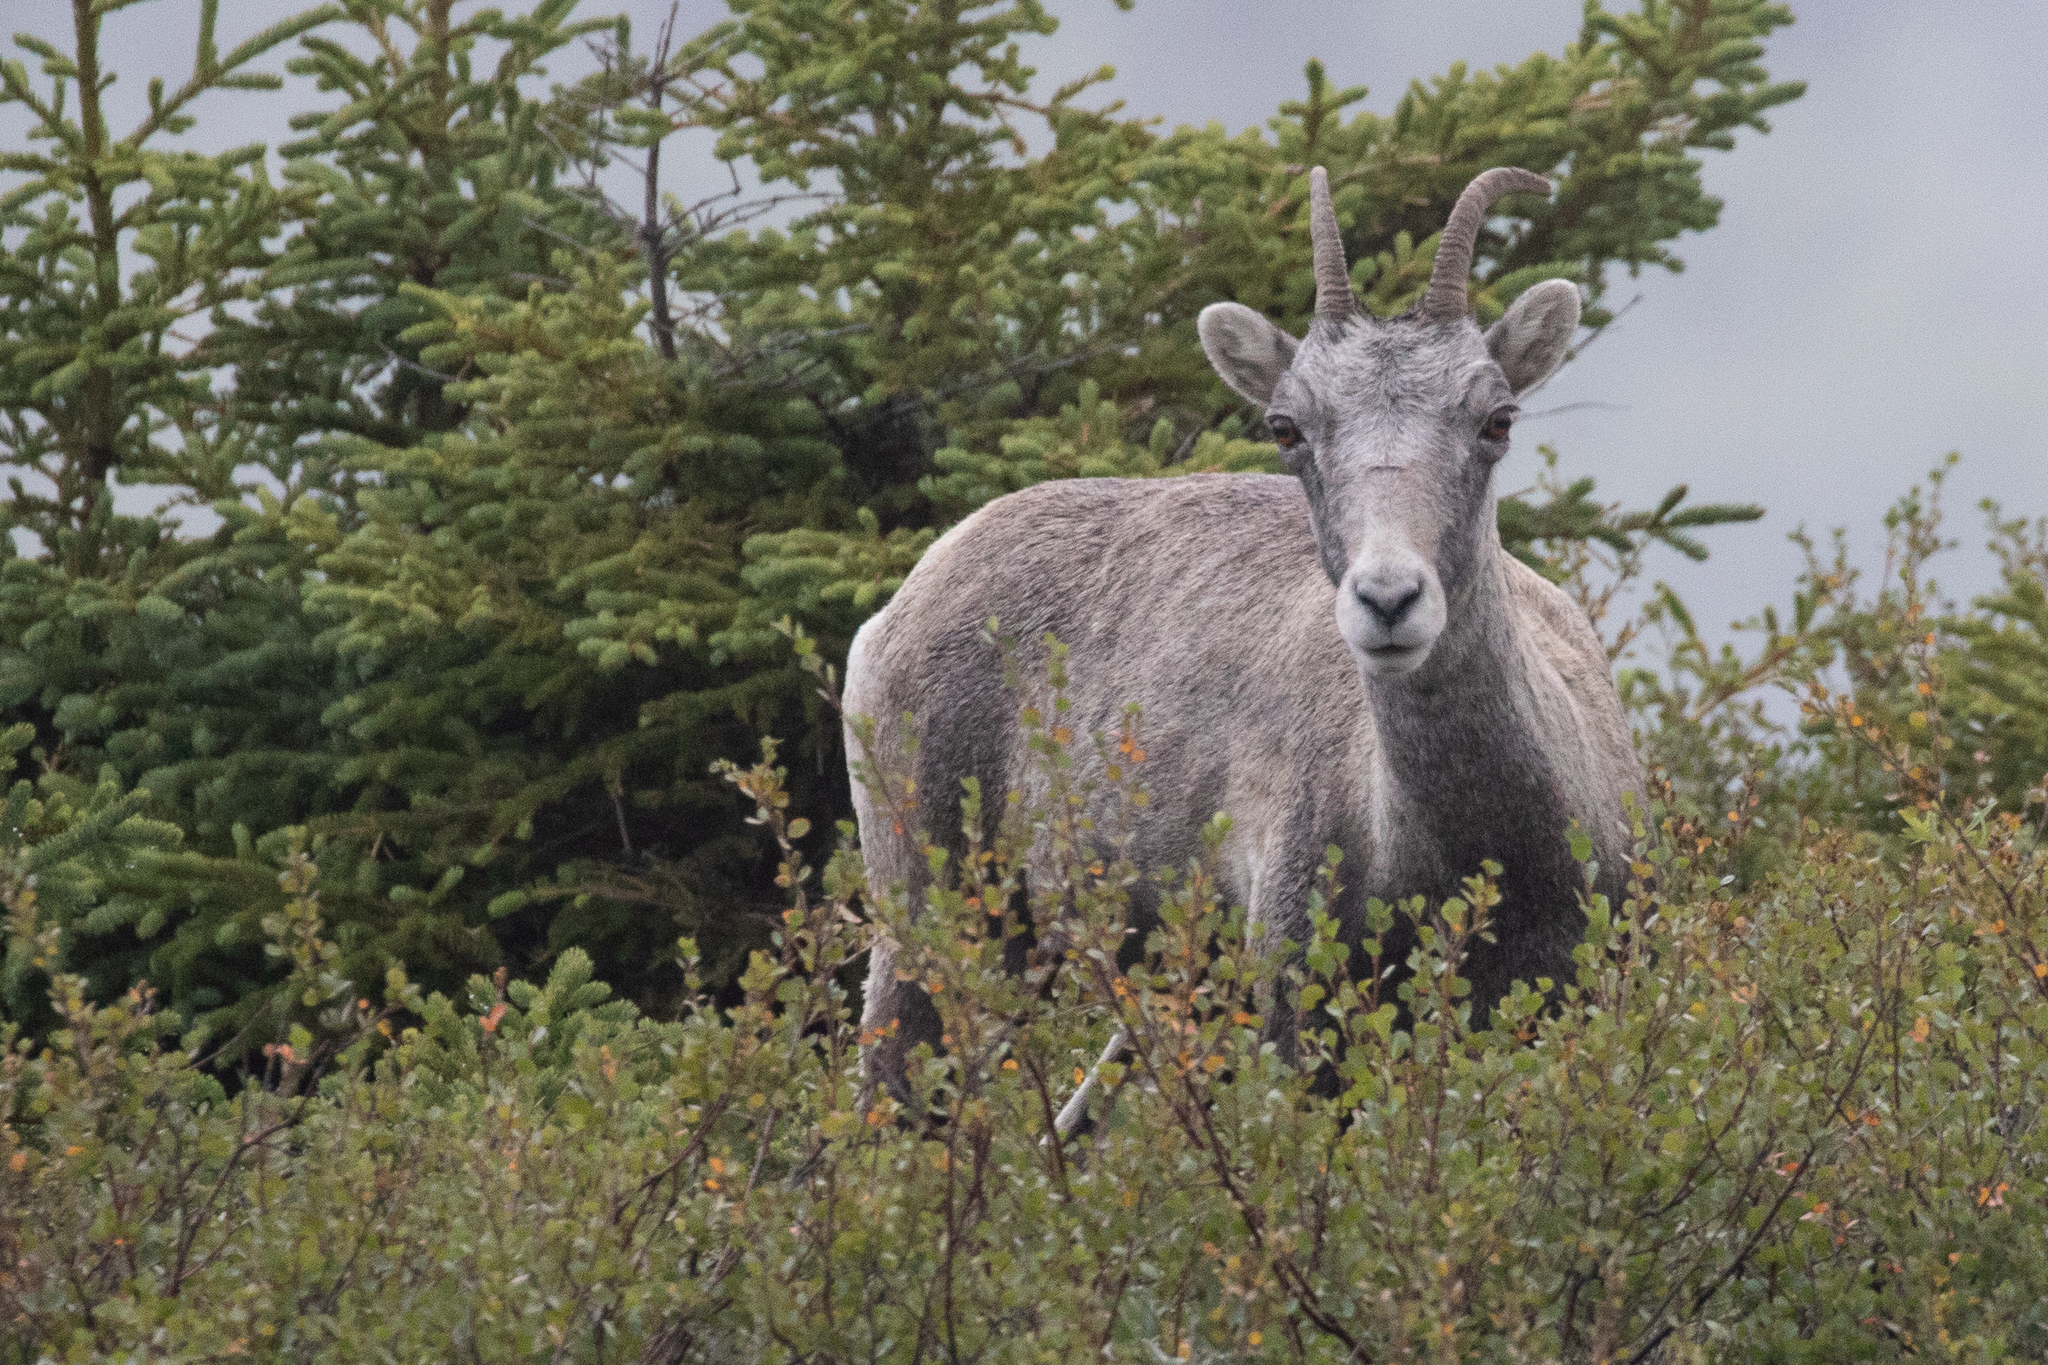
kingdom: Animalia
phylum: Chordata
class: Mammalia
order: Artiodactyla
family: Bovidae
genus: Ovis
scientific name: Ovis dalli
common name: Dall's sheep
